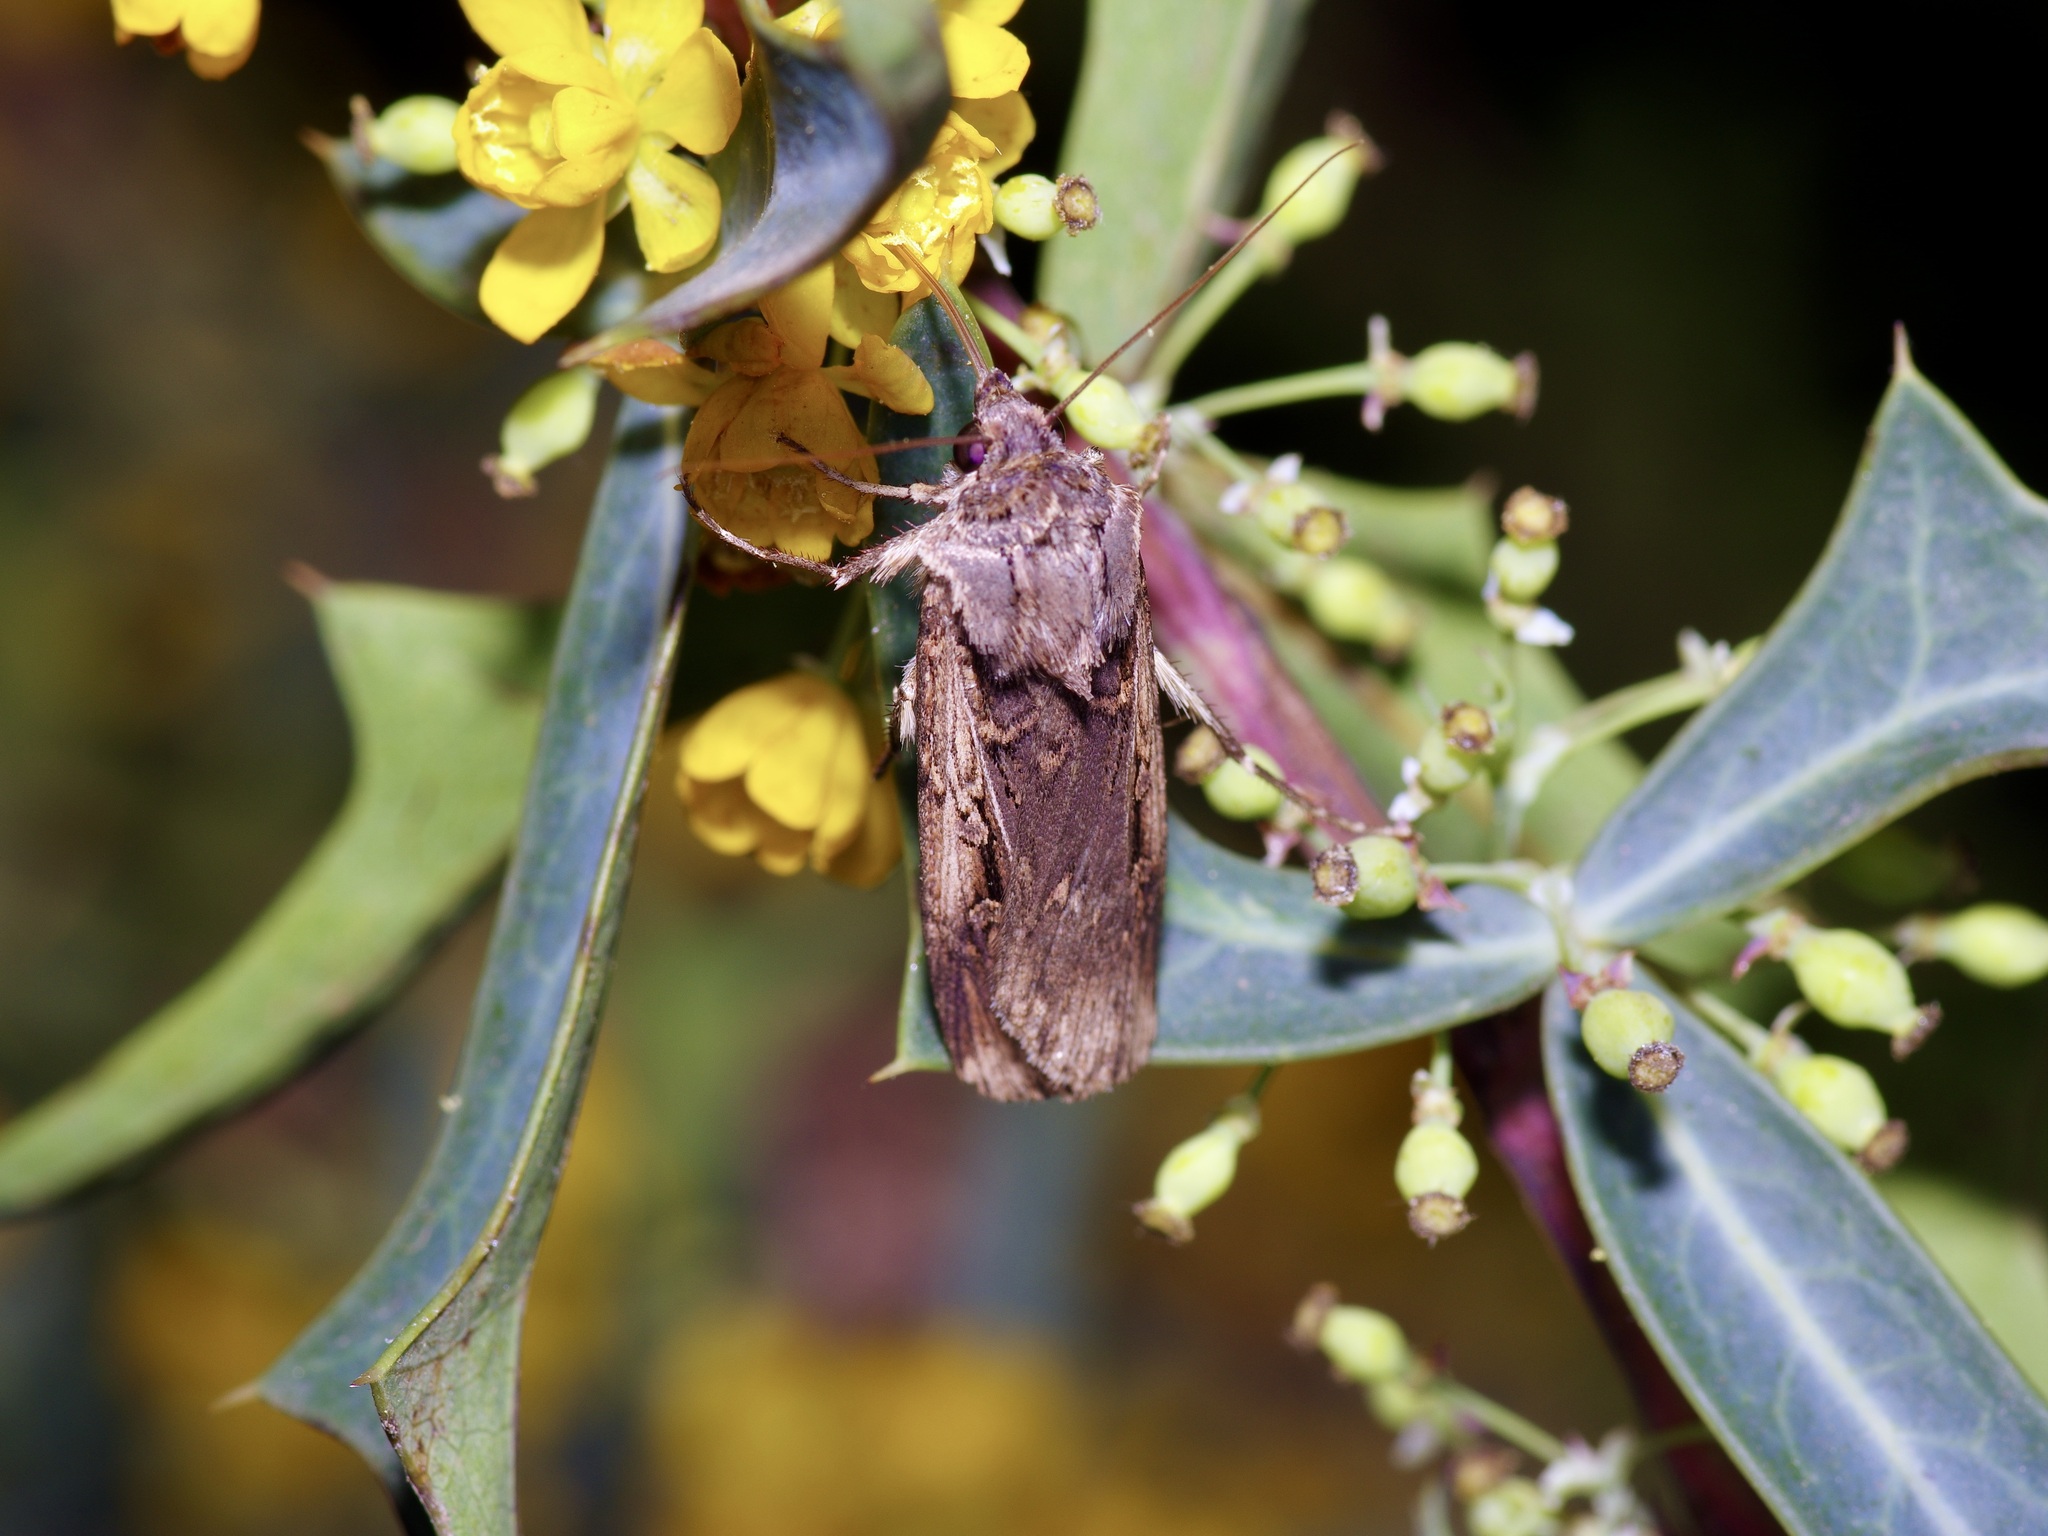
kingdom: Animalia
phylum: Arthropoda
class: Insecta
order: Lepidoptera
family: Noctuidae
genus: Feltia
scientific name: Feltia subterranea
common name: Granulate cutworm
